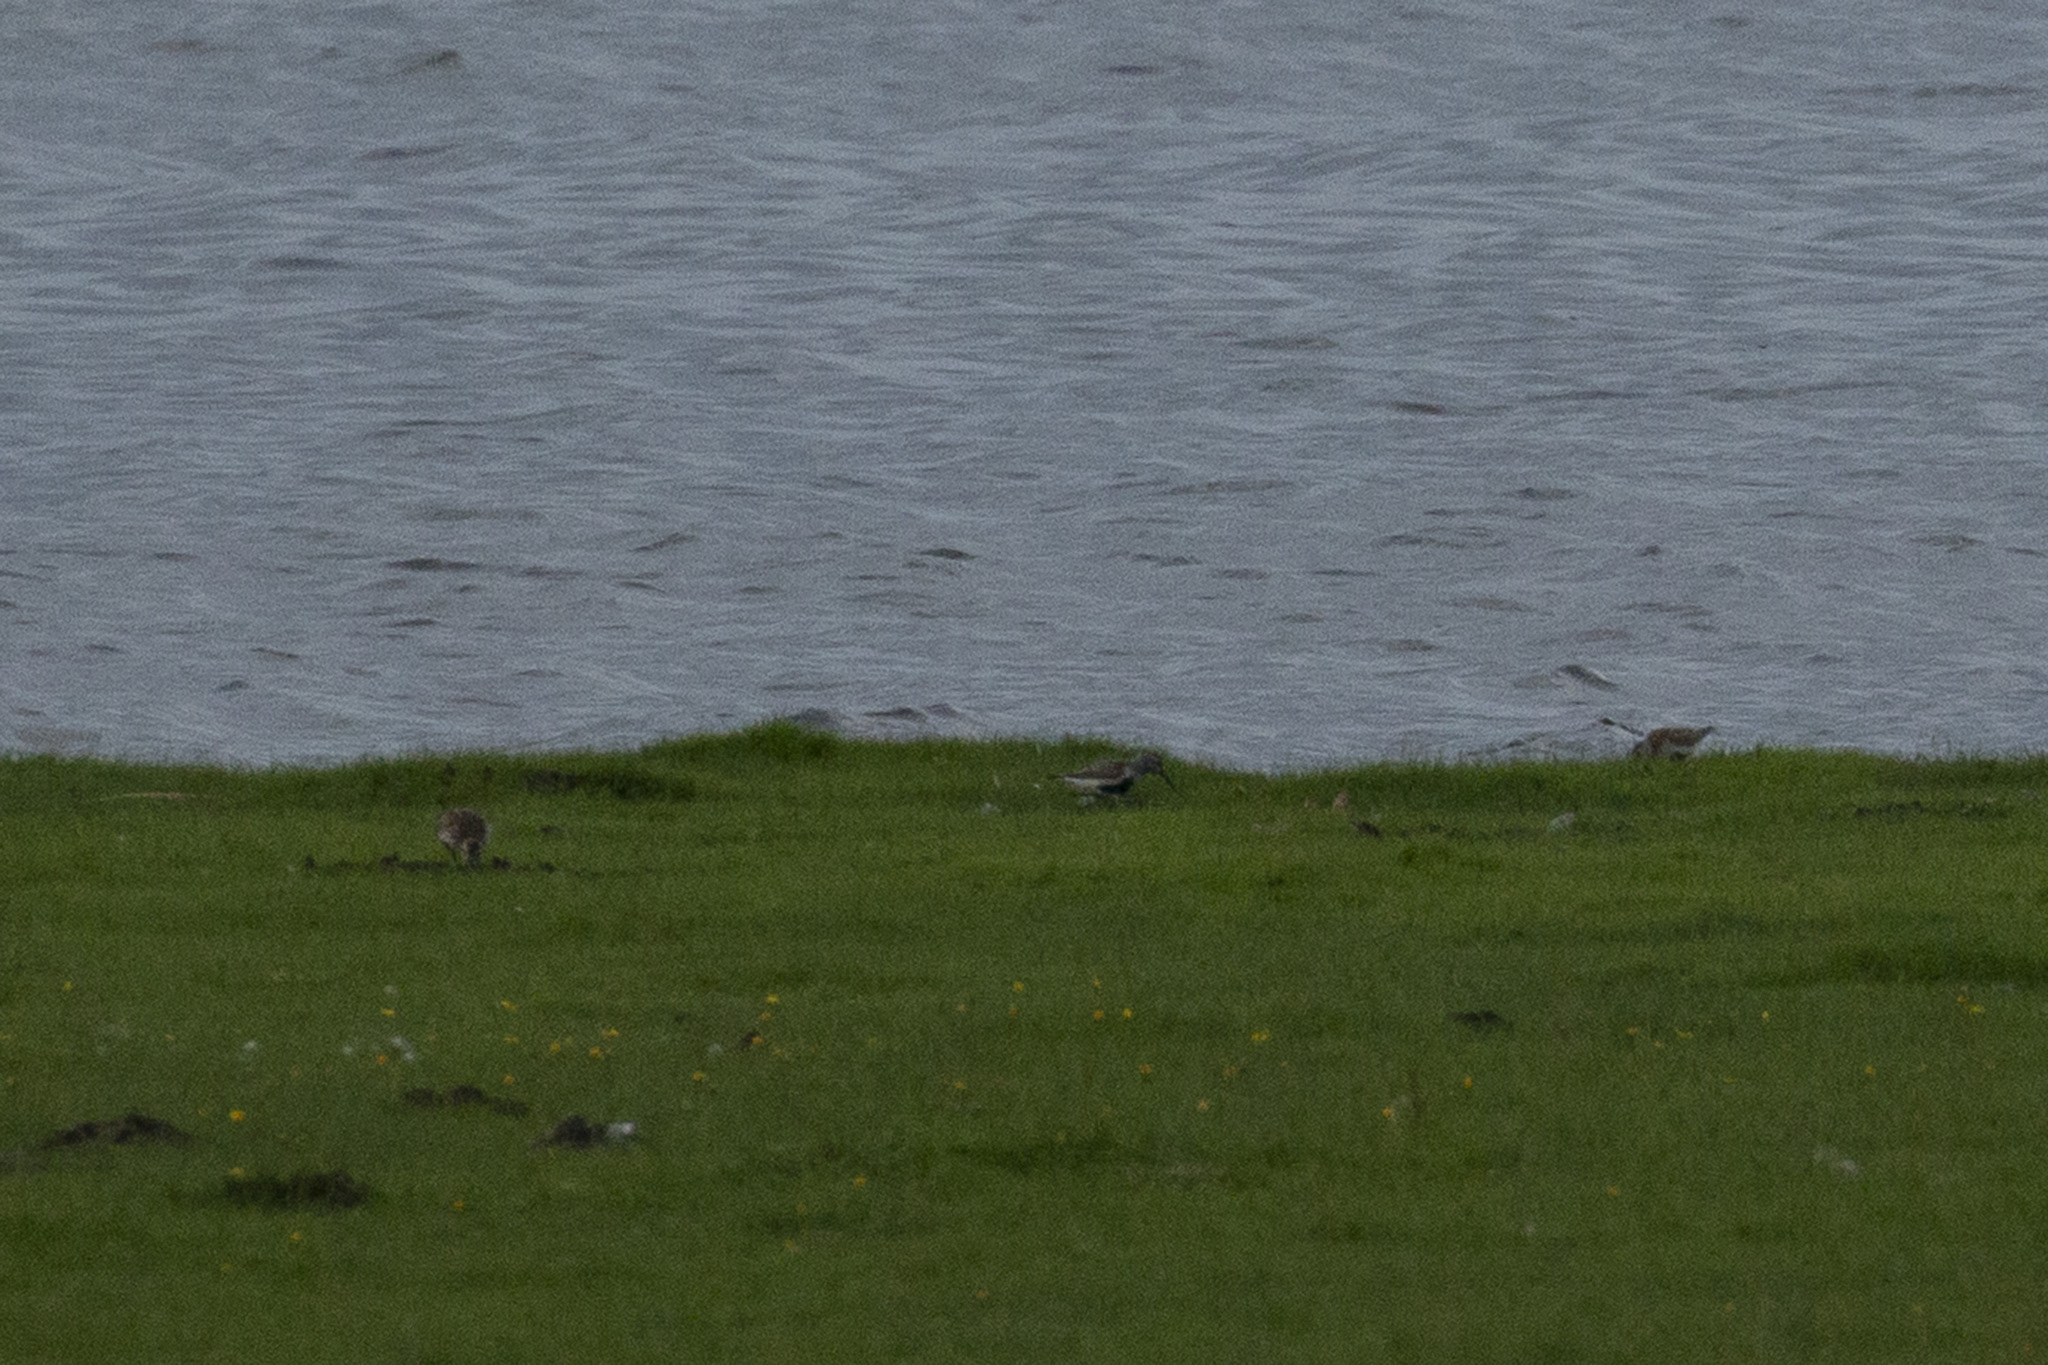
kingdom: Animalia
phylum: Chordata
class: Aves
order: Charadriiformes
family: Scolopacidae
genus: Calidris
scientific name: Calidris alpina
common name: Dunlin
